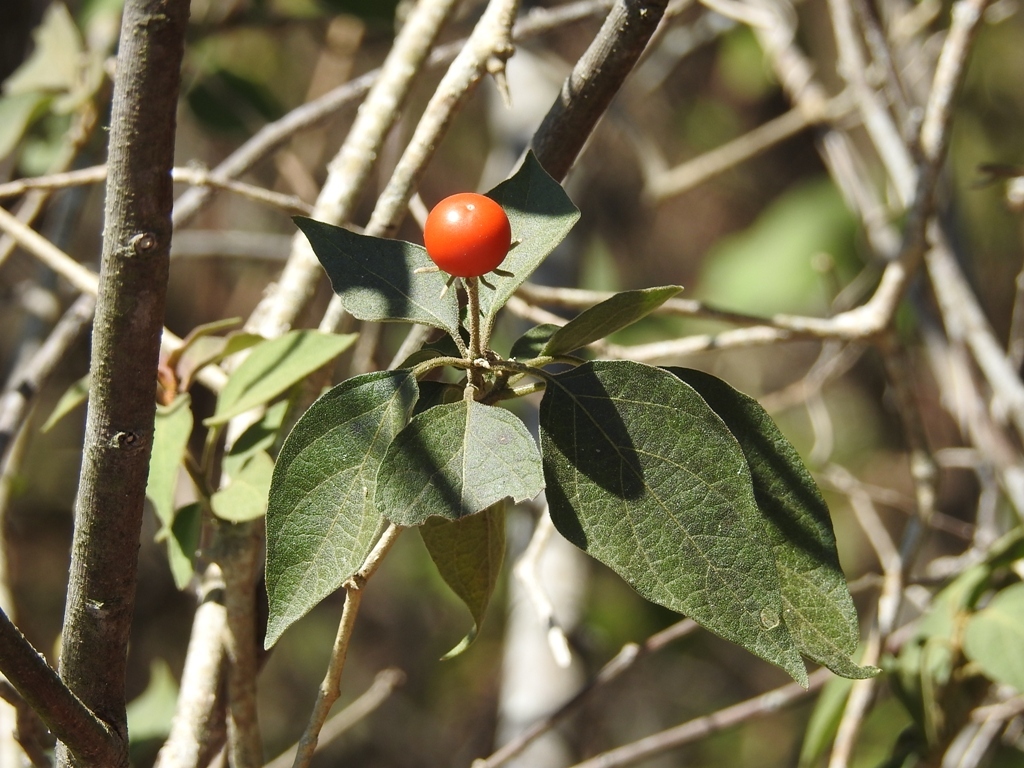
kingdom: Plantae
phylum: Tracheophyta
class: Magnoliopsida
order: Solanales
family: Solanaceae
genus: Lycianthes
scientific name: Lycianthes scandens
